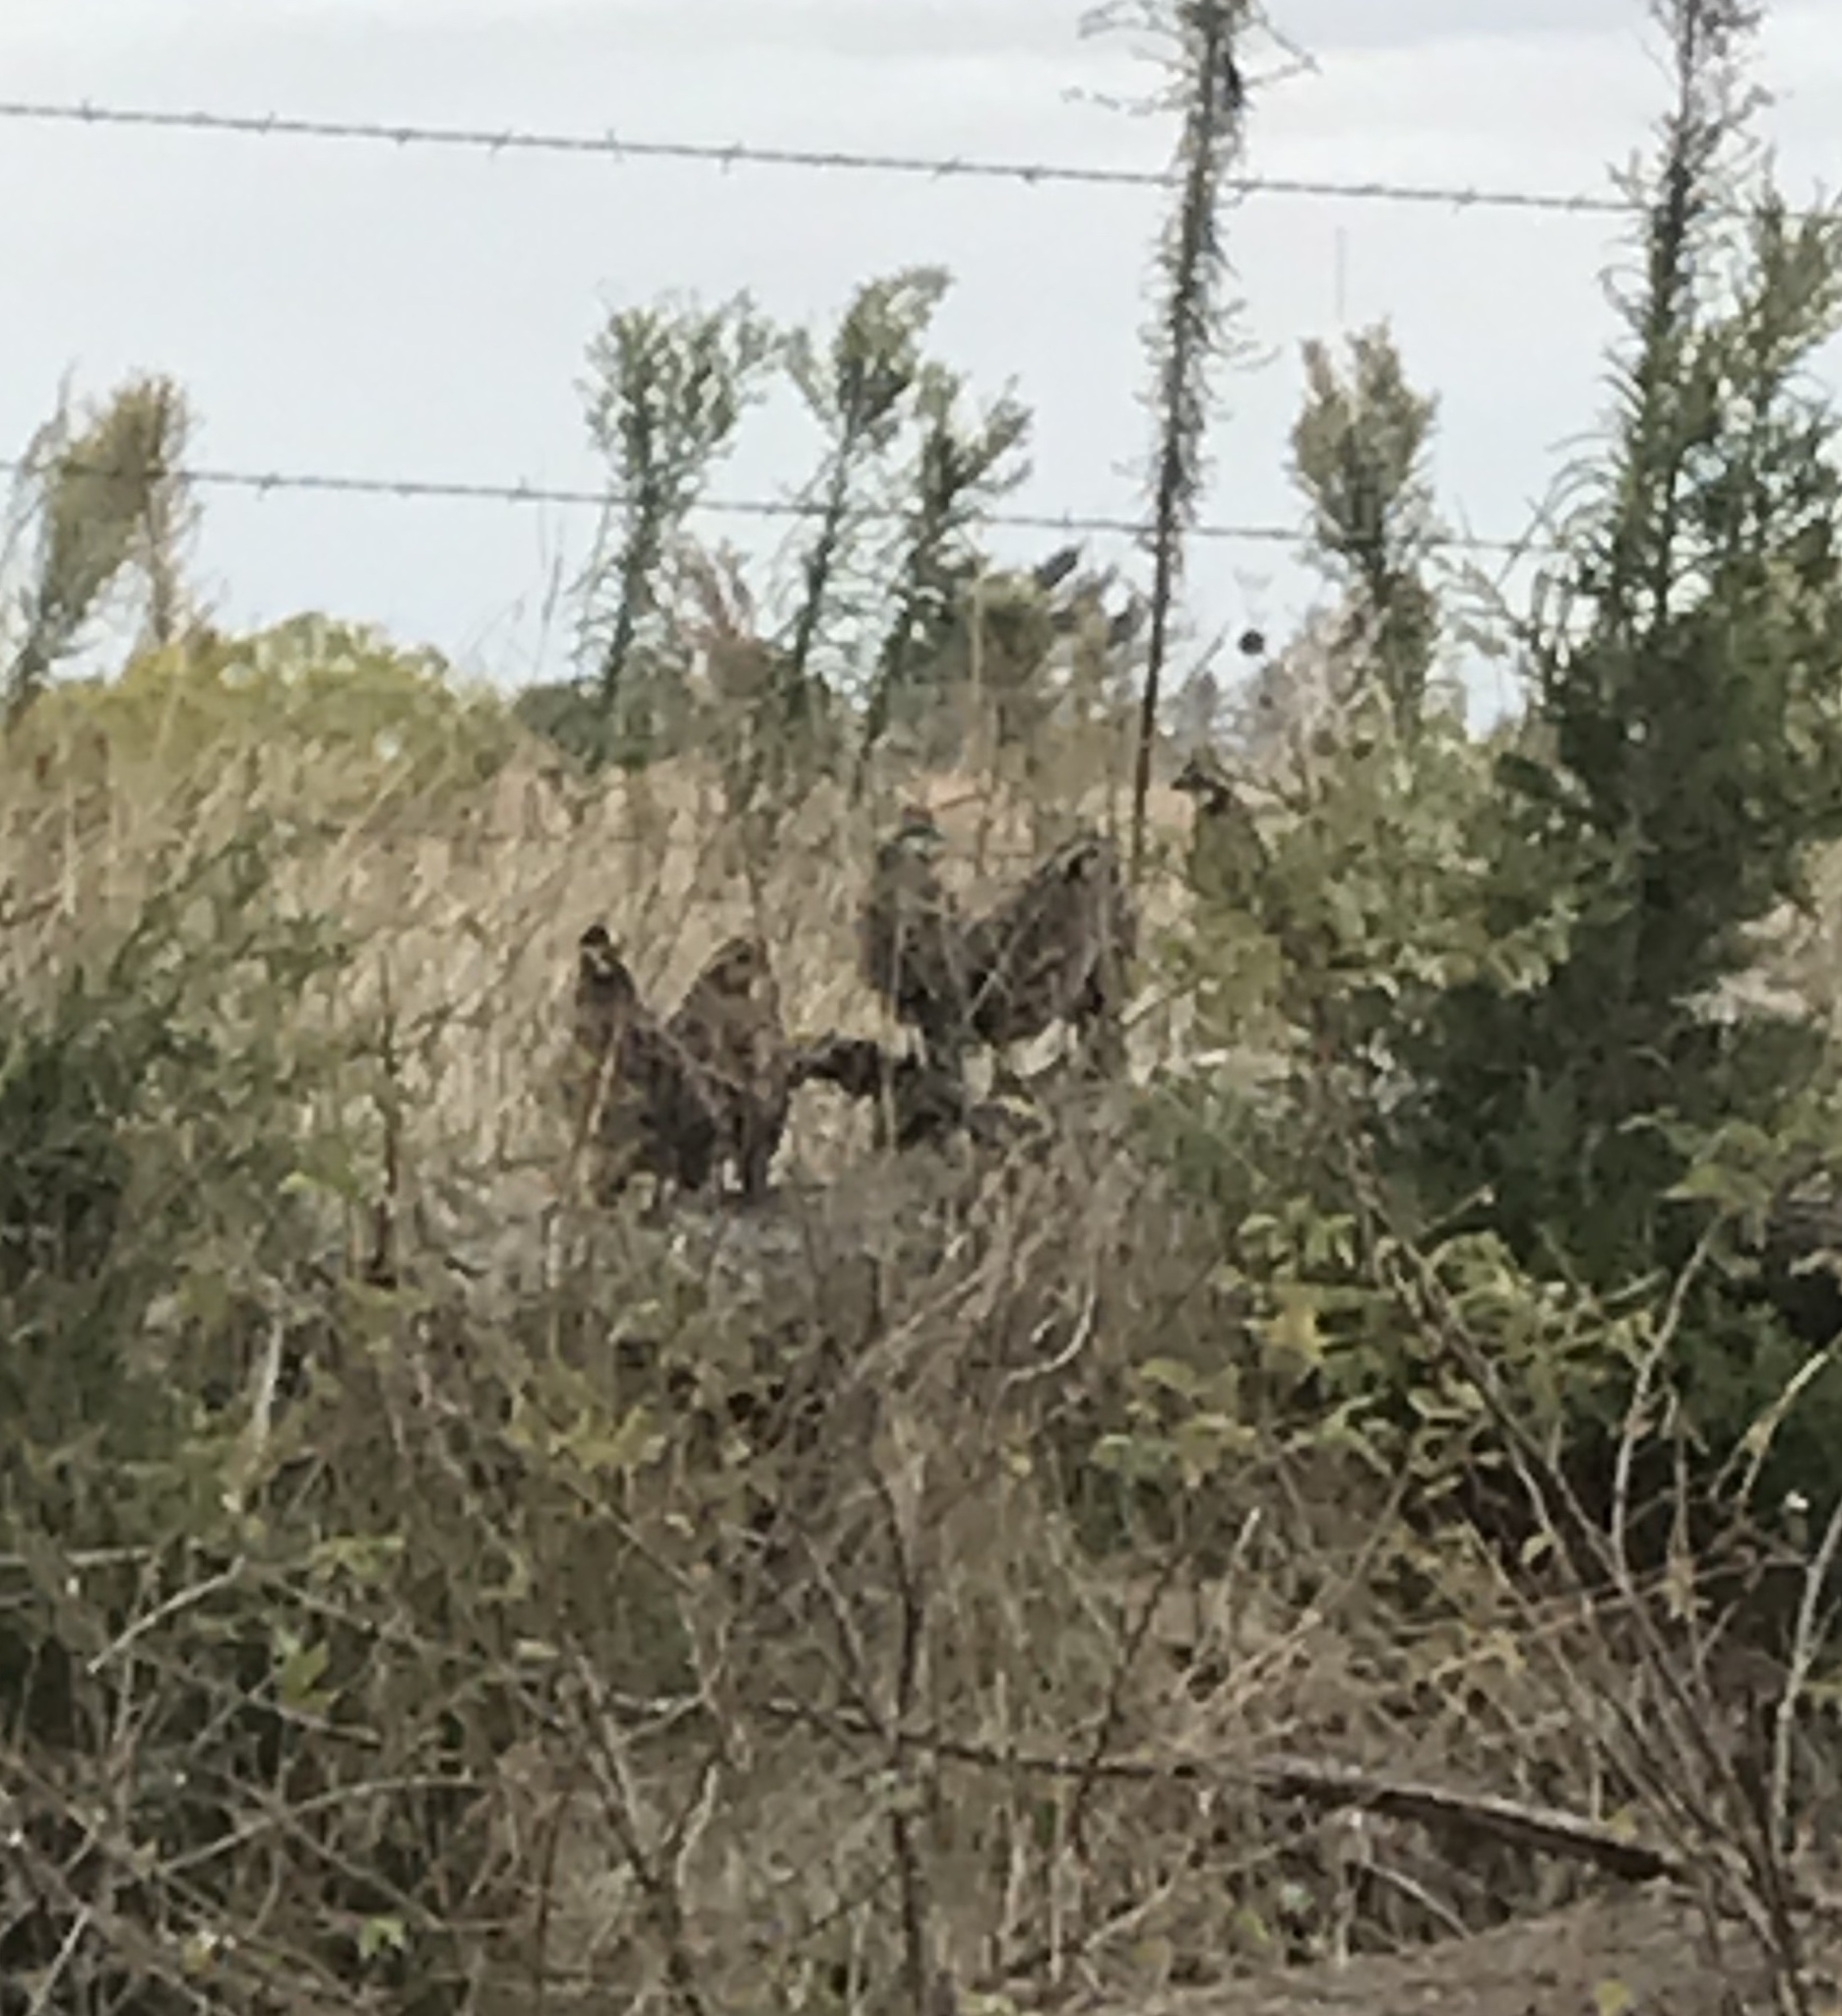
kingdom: Animalia
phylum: Chordata
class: Aves
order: Galliformes
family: Odontophoridae
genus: Colinus
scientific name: Colinus virginianus
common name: Northern bobwhite
